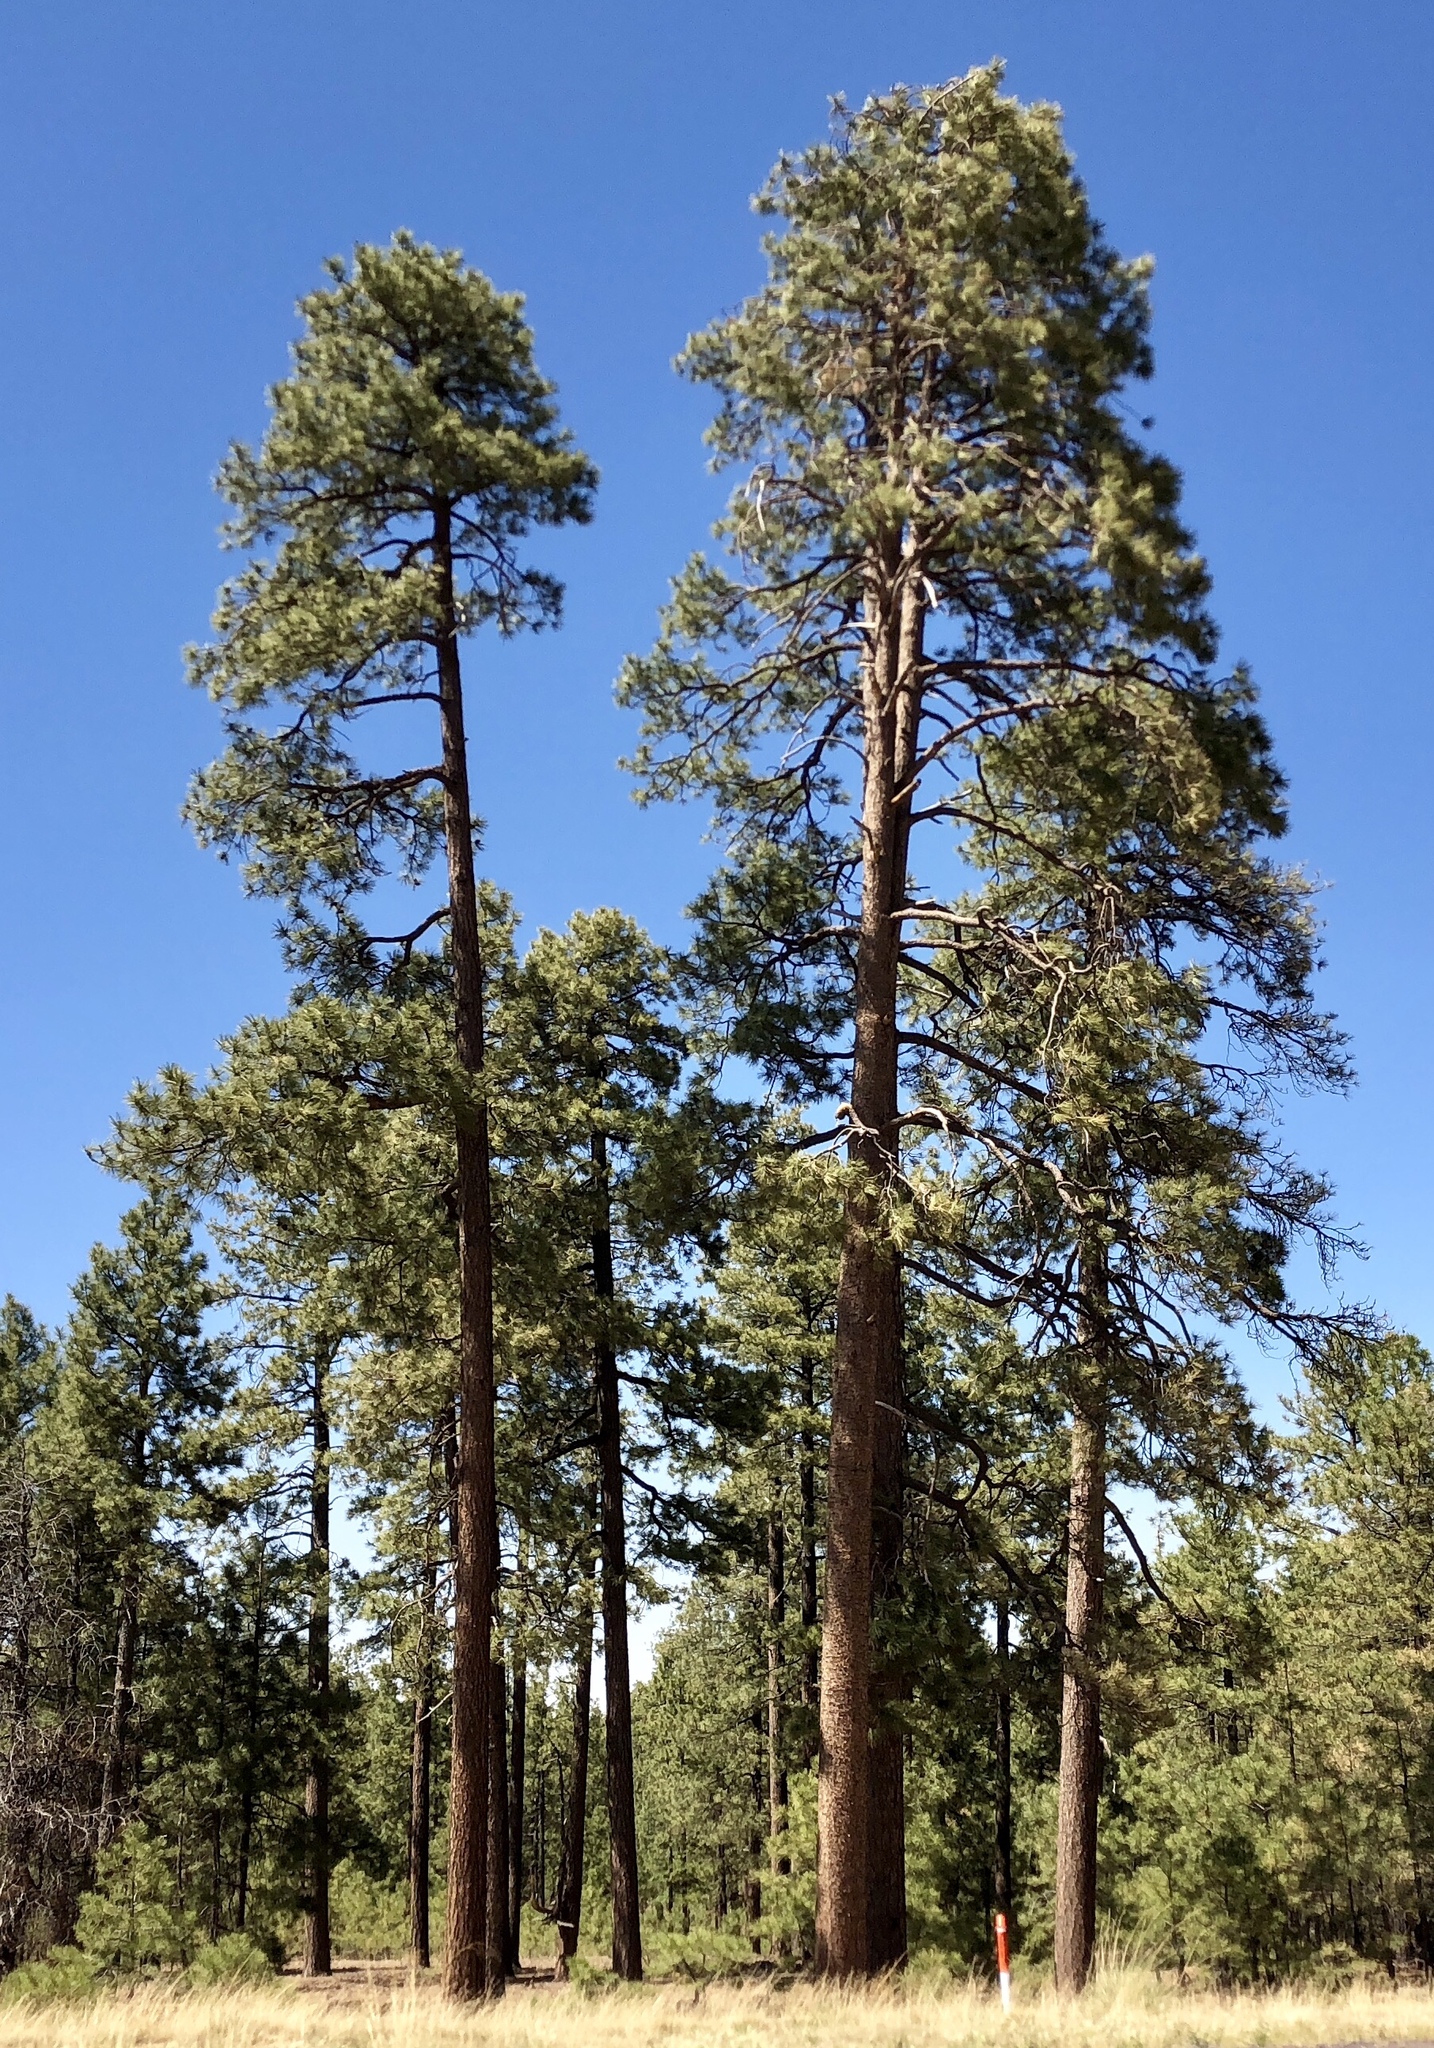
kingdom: Plantae
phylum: Tracheophyta
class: Pinopsida
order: Pinales
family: Pinaceae
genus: Pinus
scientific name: Pinus ponderosa
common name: Western yellow-pine
